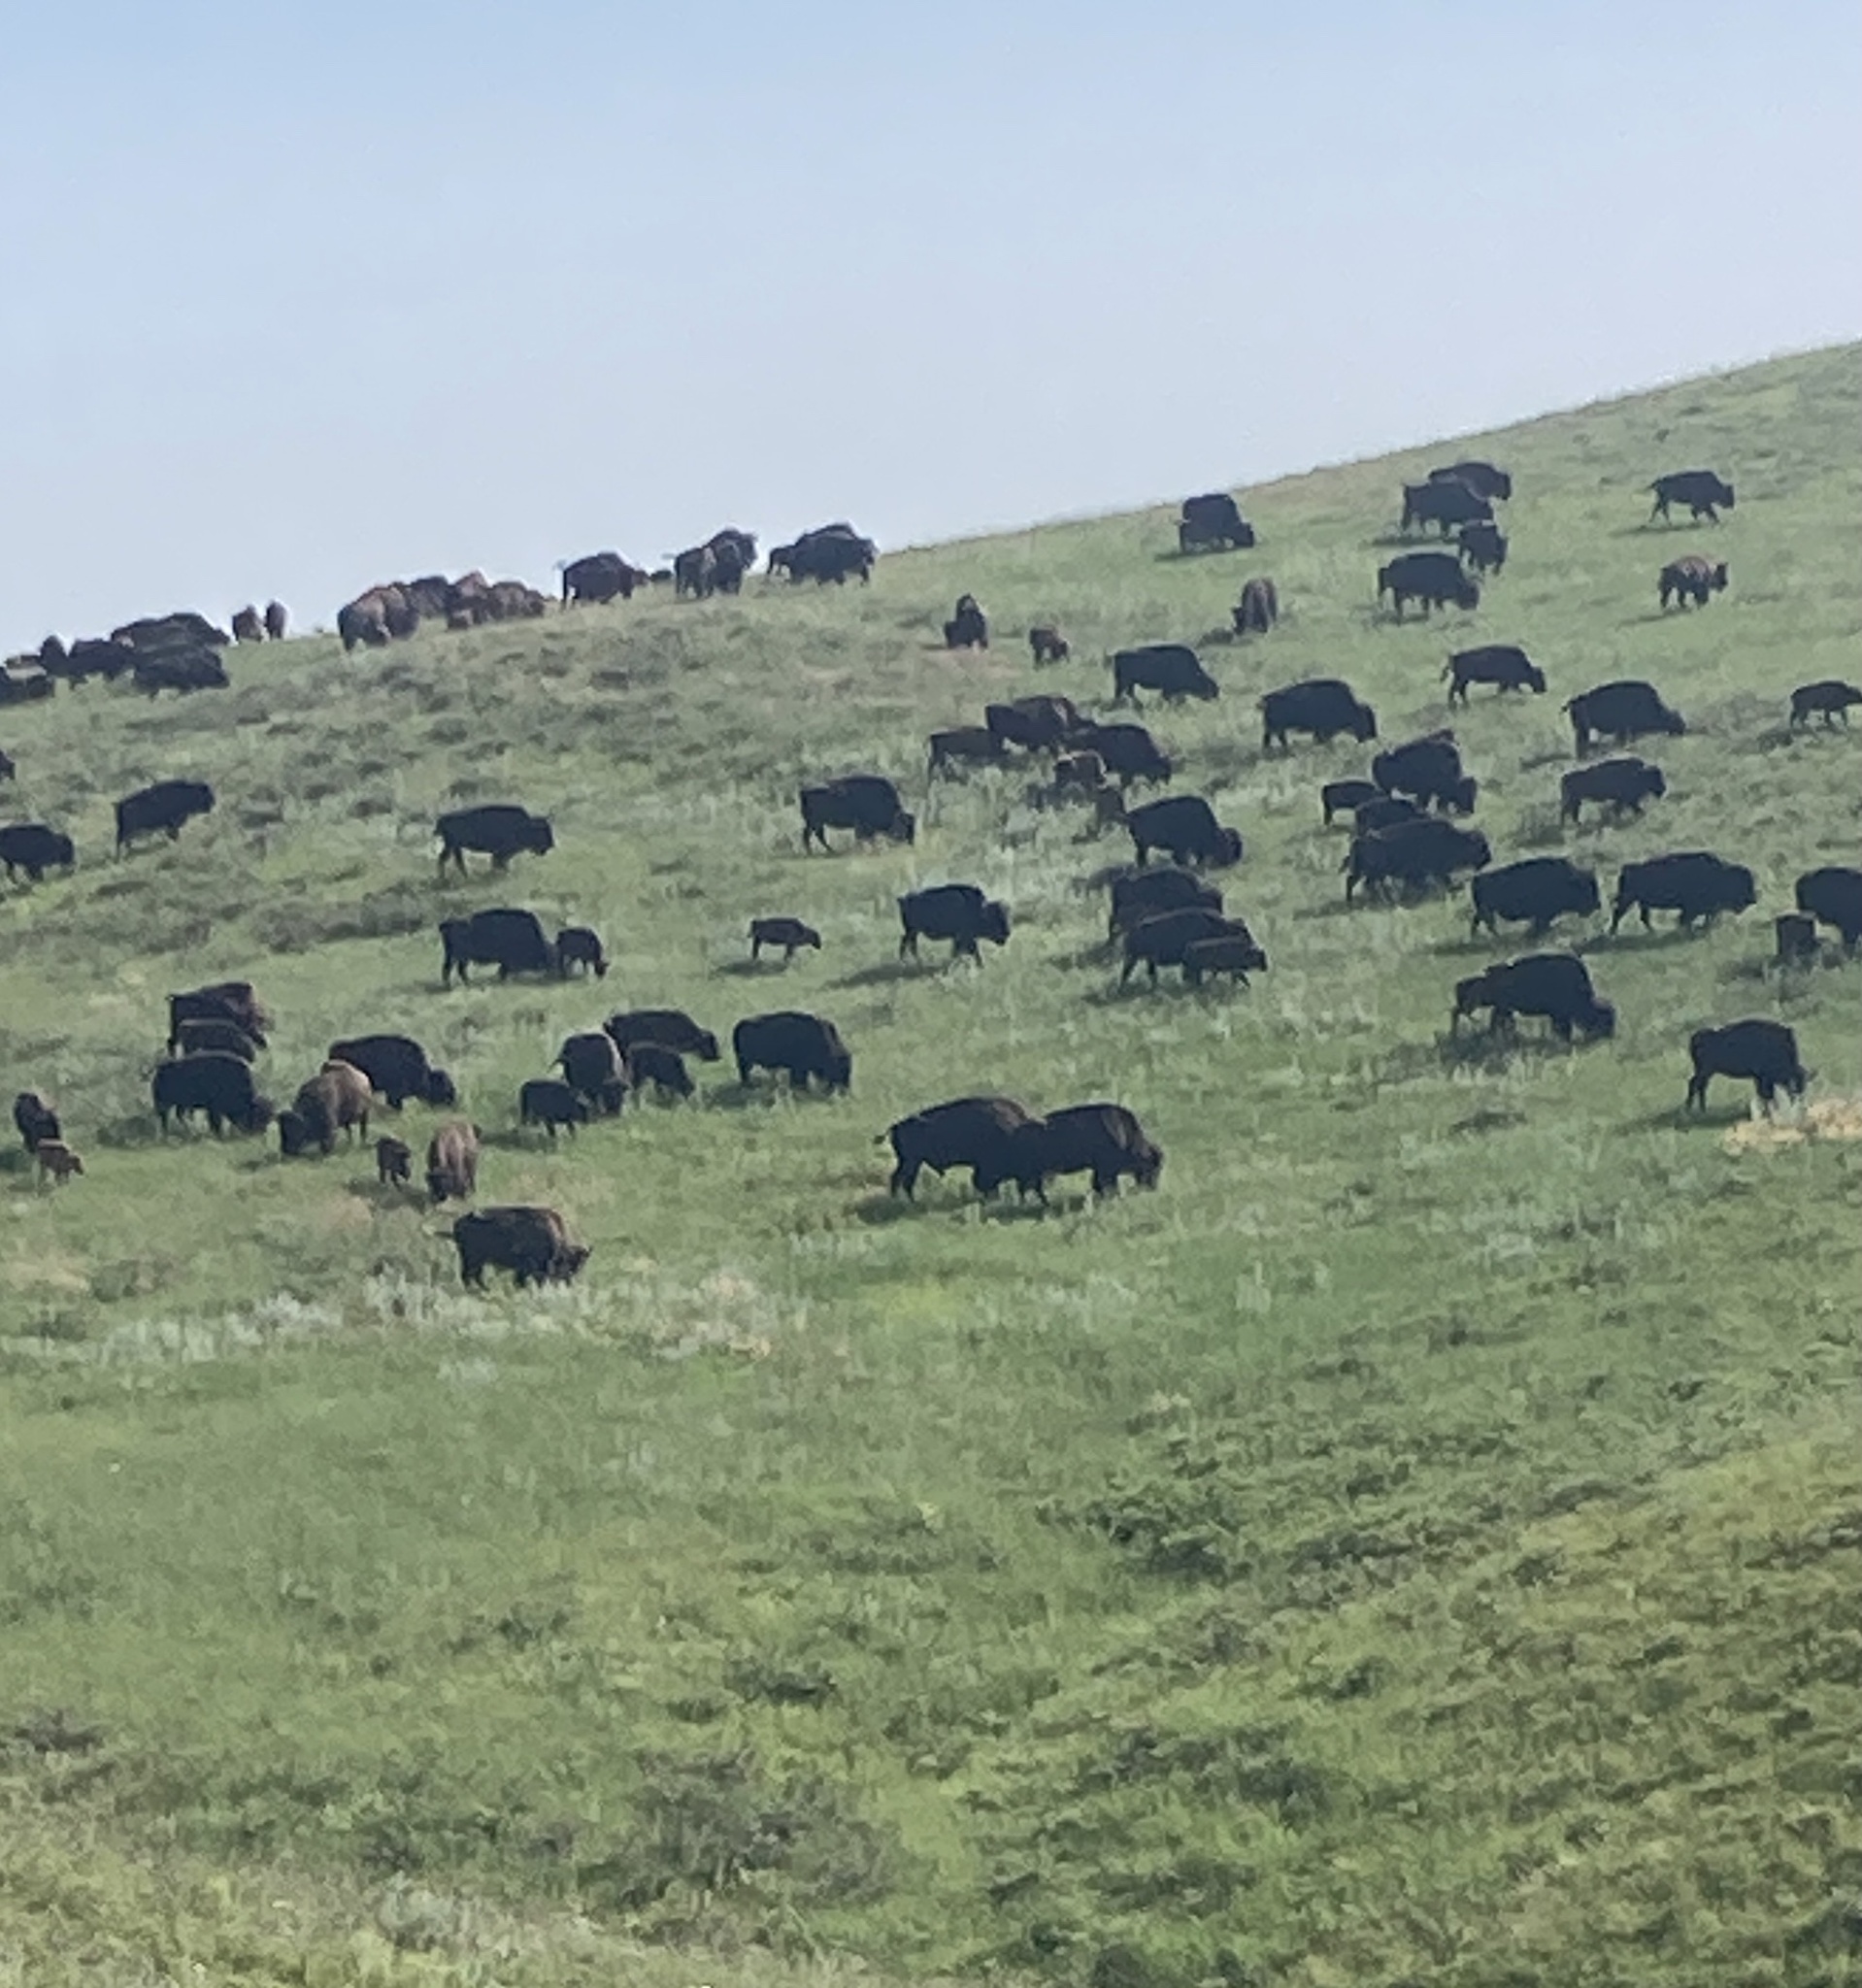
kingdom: Animalia
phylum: Chordata
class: Mammalia
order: Artiodactyla
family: Bovidae
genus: Bison
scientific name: Bison bison
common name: American bison
